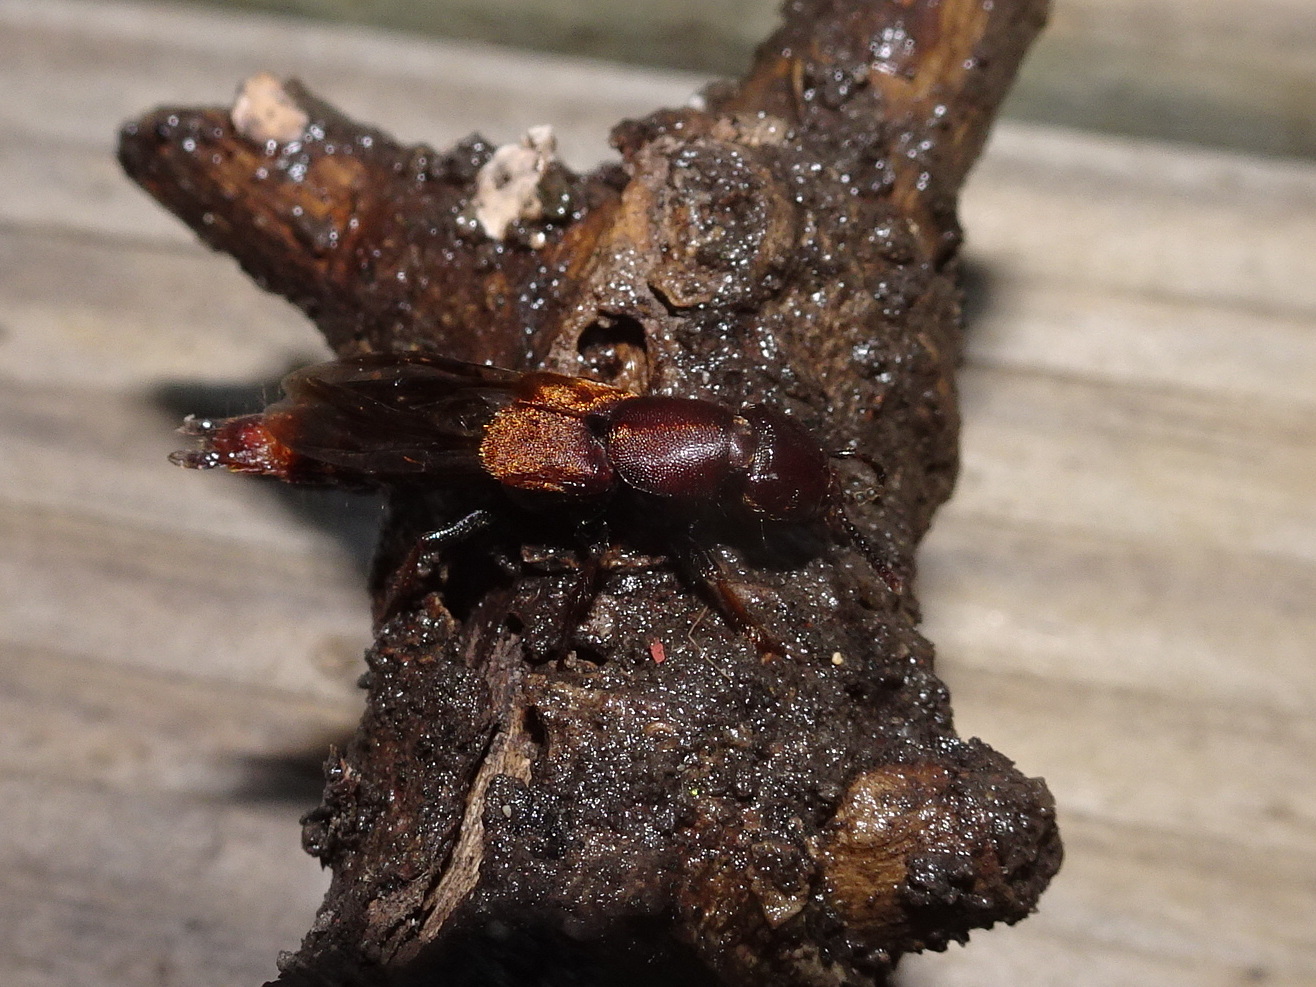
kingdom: Animalia
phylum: Arthropoda
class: Insecta
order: Coleoptera
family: Staphylinidae
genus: Platydracus
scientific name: Platydracus cinnamopterus
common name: Cinnamon rove beetle
